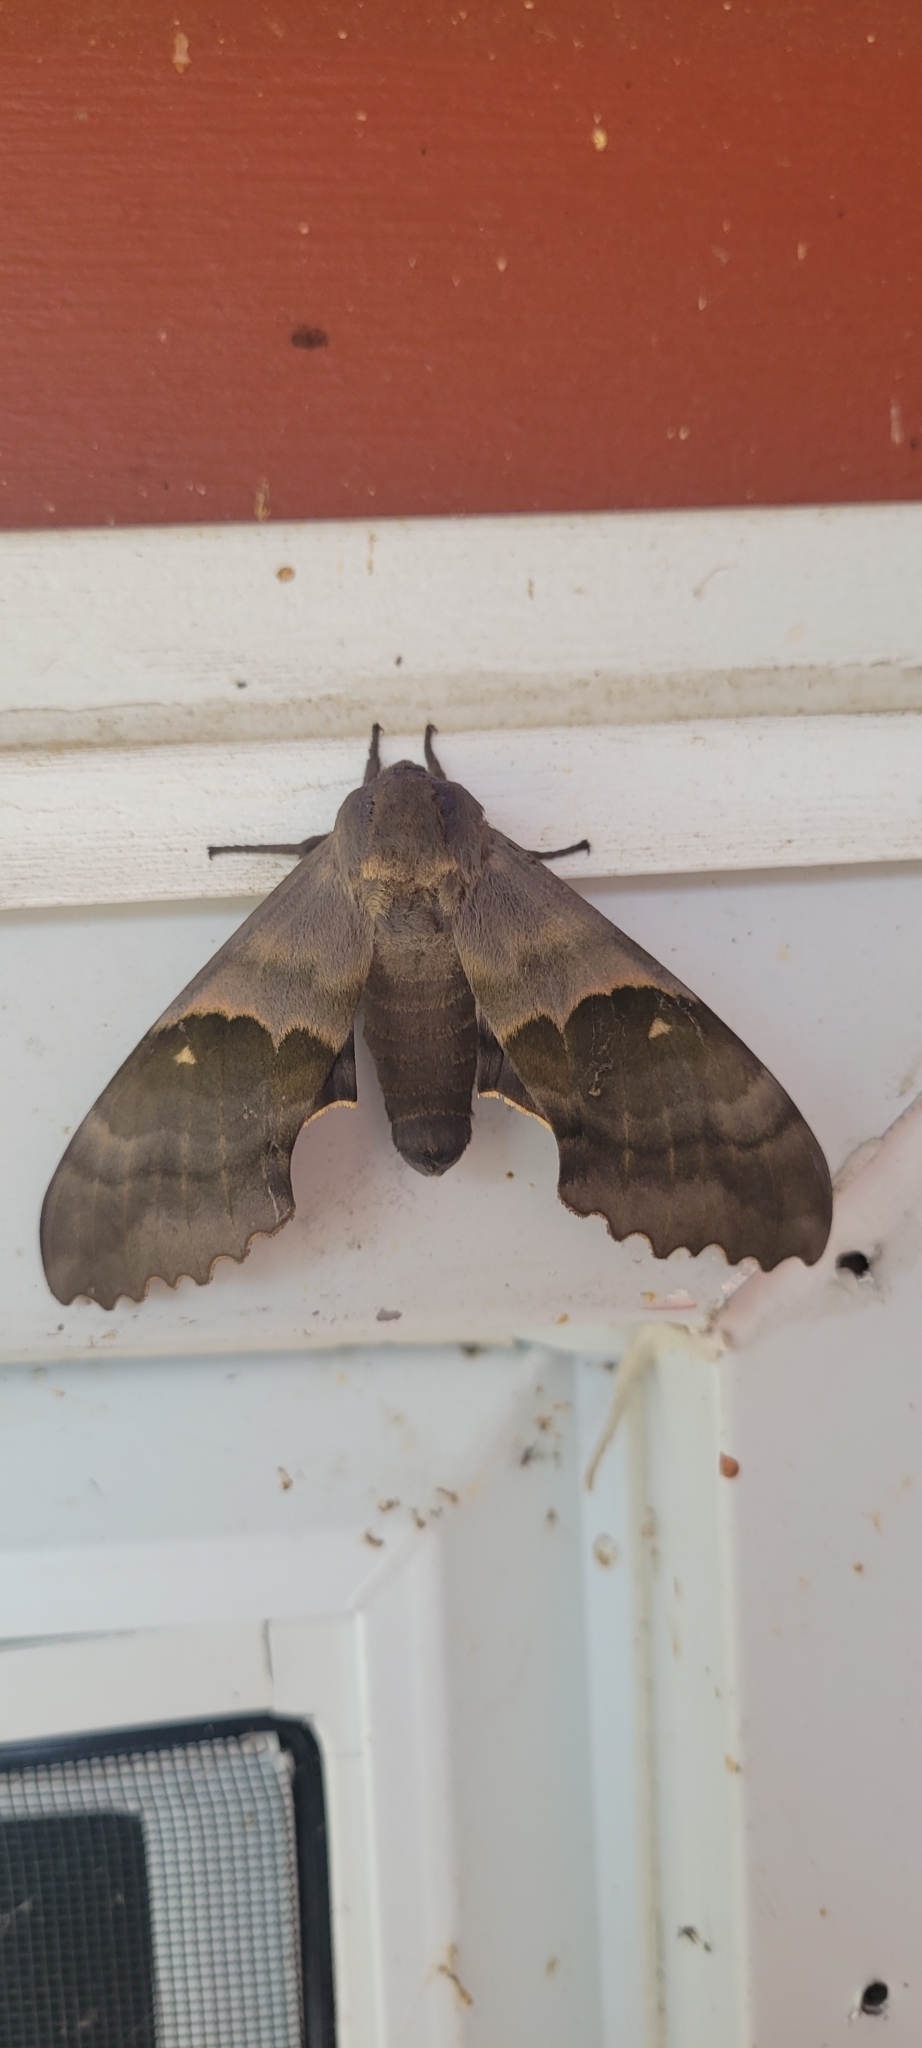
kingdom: Animalia
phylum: Arthropoda
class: Insecta
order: Lepidoptera
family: Sphingidae
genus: Pachysphinx
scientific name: Pachysphinx modesta
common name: Big poplar sphinx
